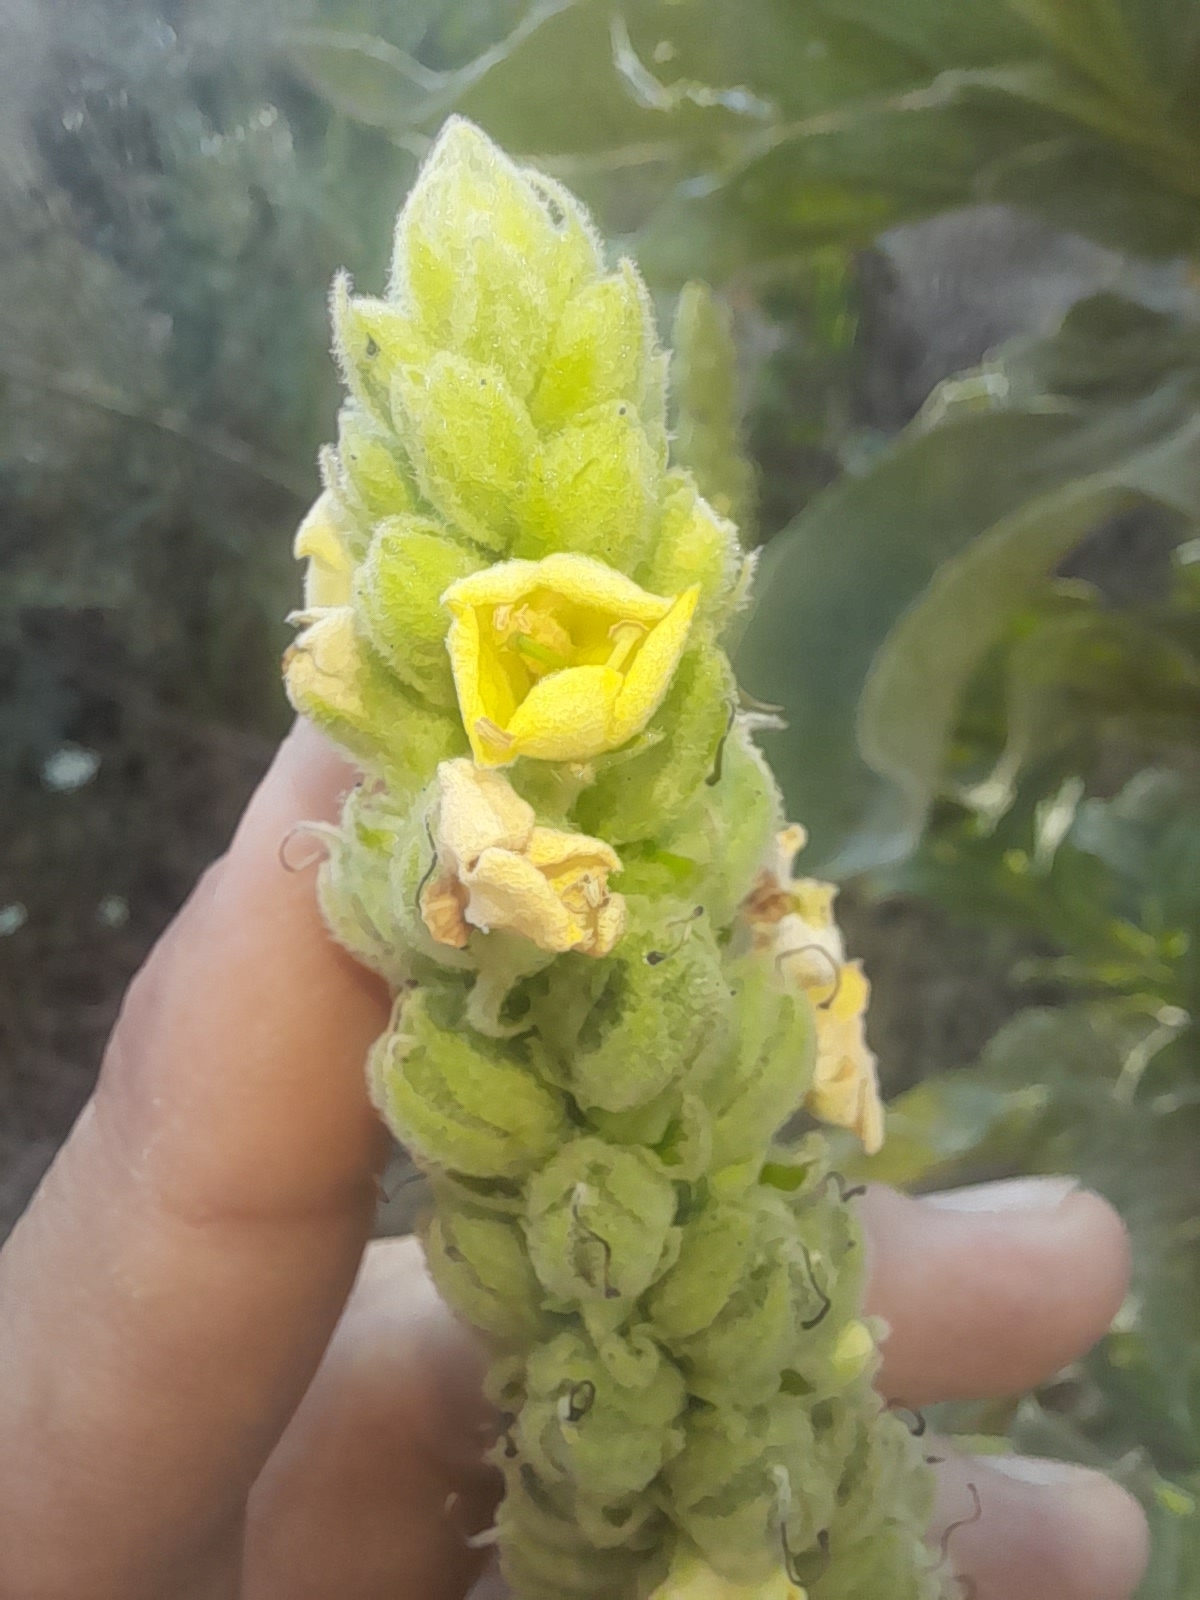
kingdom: Plantae
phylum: Tracheophyta
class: Magnoliopsida
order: Lamiales
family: Scrophulariaceae
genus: Verbascum
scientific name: Verbascum thapsus
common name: Common mullein
